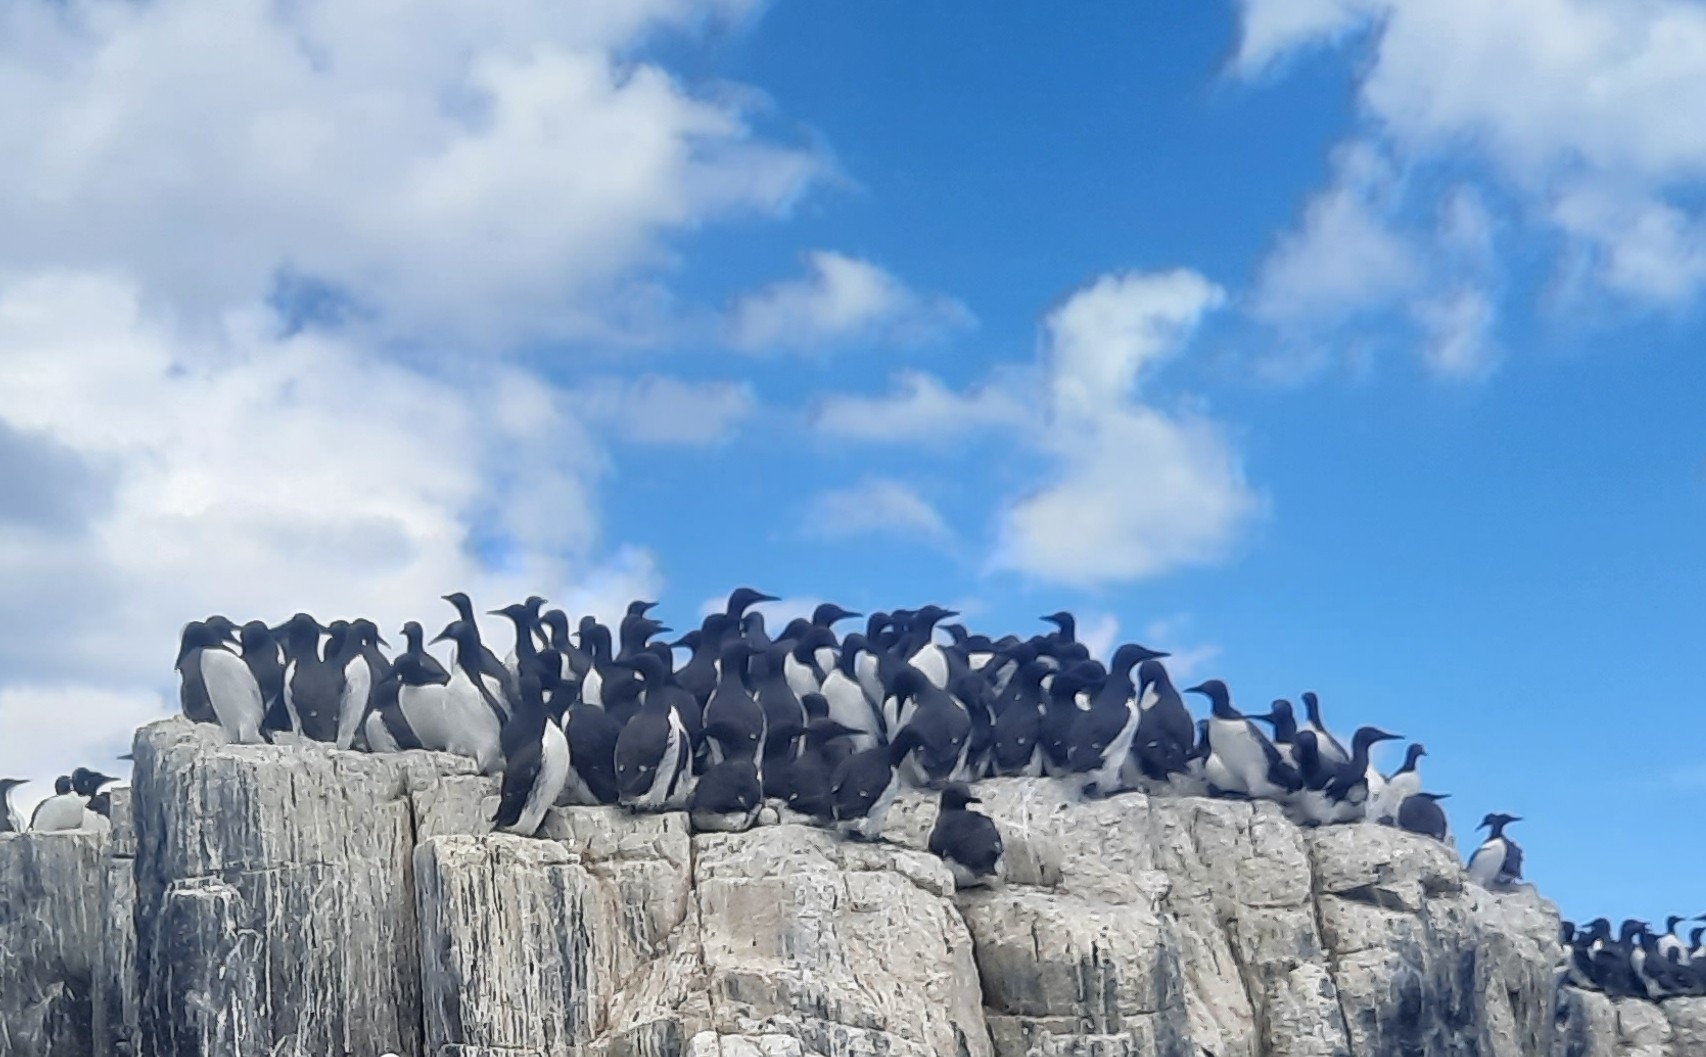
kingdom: Animalia
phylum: Chordata
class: Aves
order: Charadriiformes
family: Alcidae
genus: Uria
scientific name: Uria aalge
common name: Common murre
